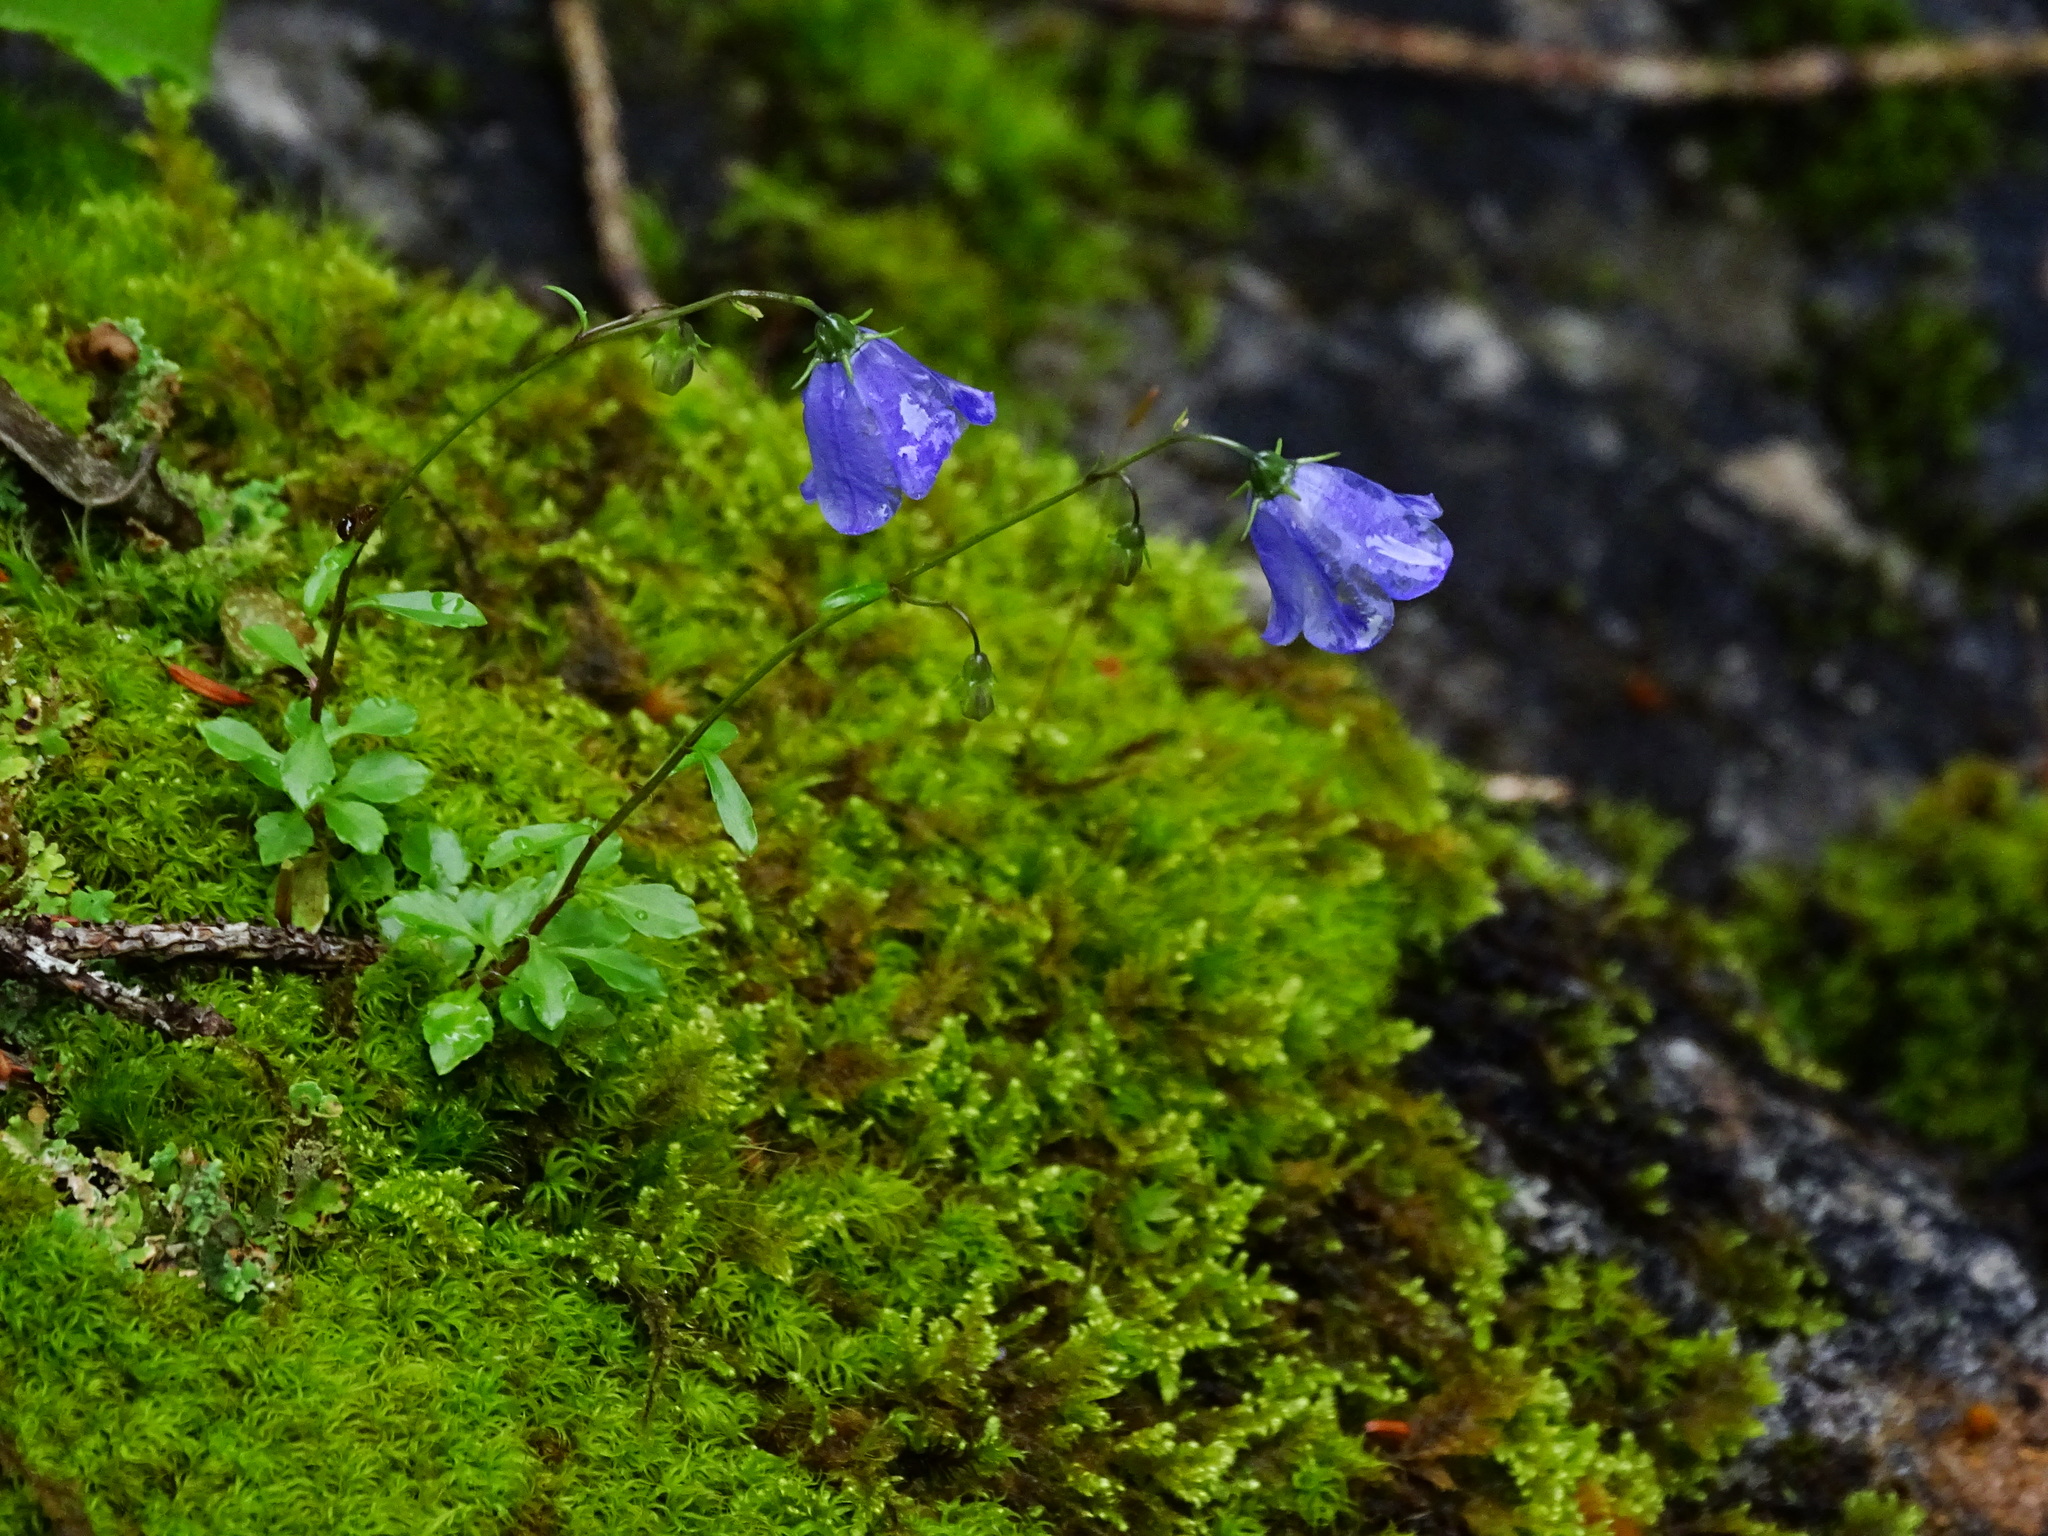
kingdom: Plantae
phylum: Tracheophyta
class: Magnoliopsida
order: Asterales
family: Campanulaceae
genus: Campanula
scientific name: Campanula cochleariifolia
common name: Fairies'-thimbles
